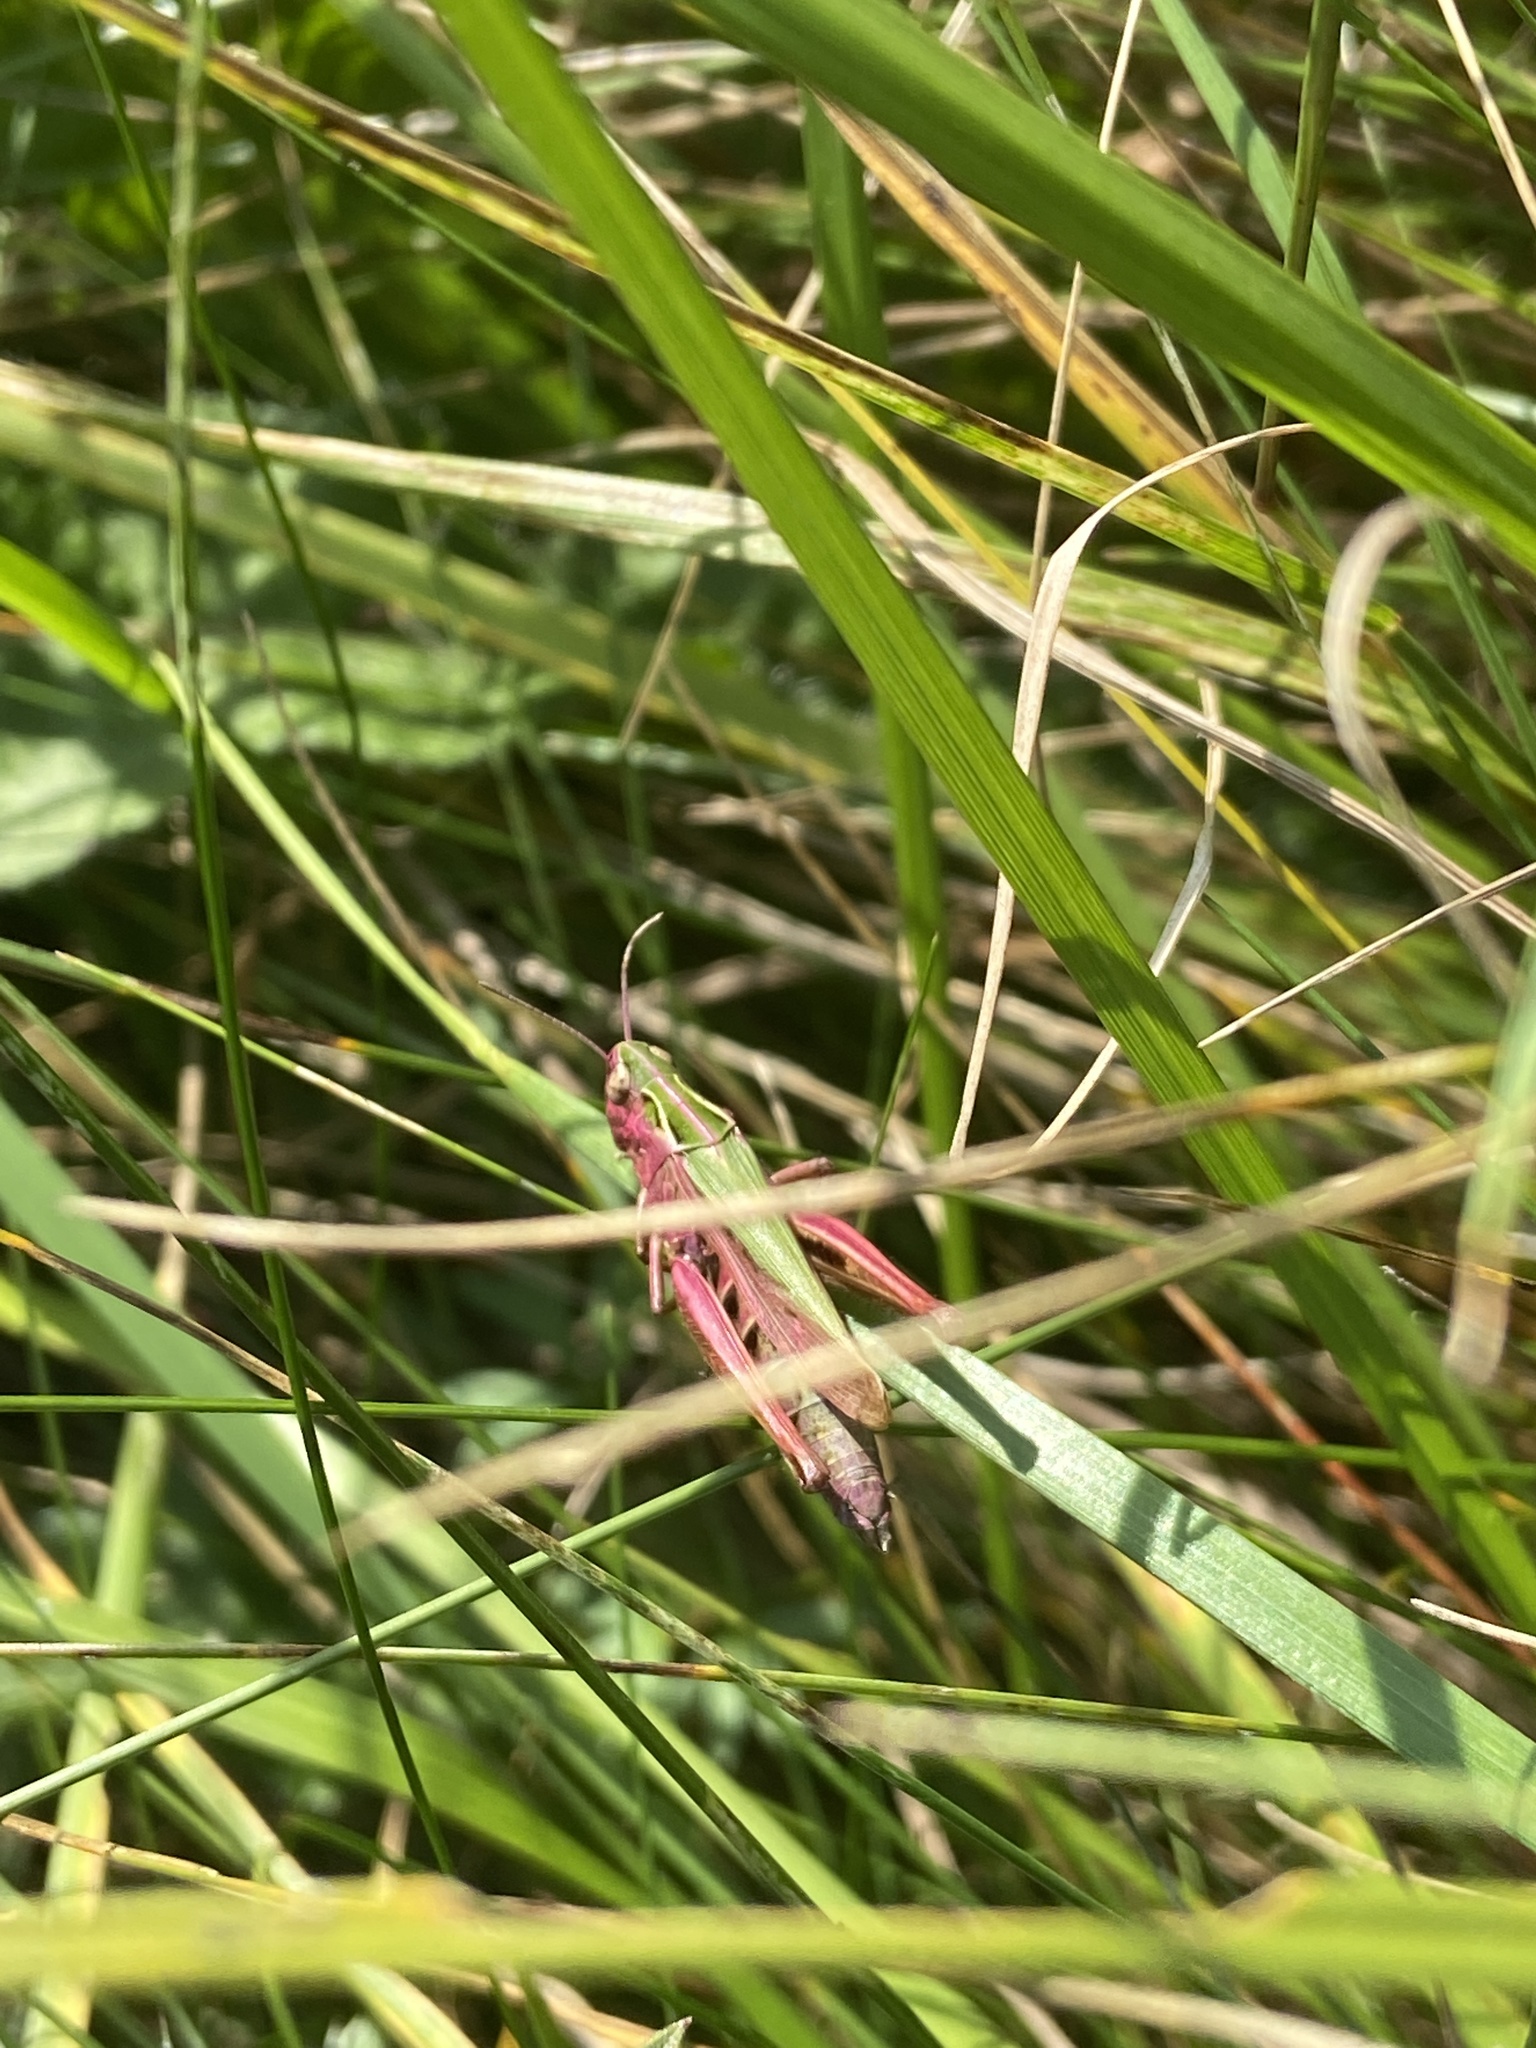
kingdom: Animalia
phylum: Arthropoda
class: Insecta
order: Orthoptera
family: Acrididae
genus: Omocestus
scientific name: Omocestus viridulus
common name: Common green grasshopper
